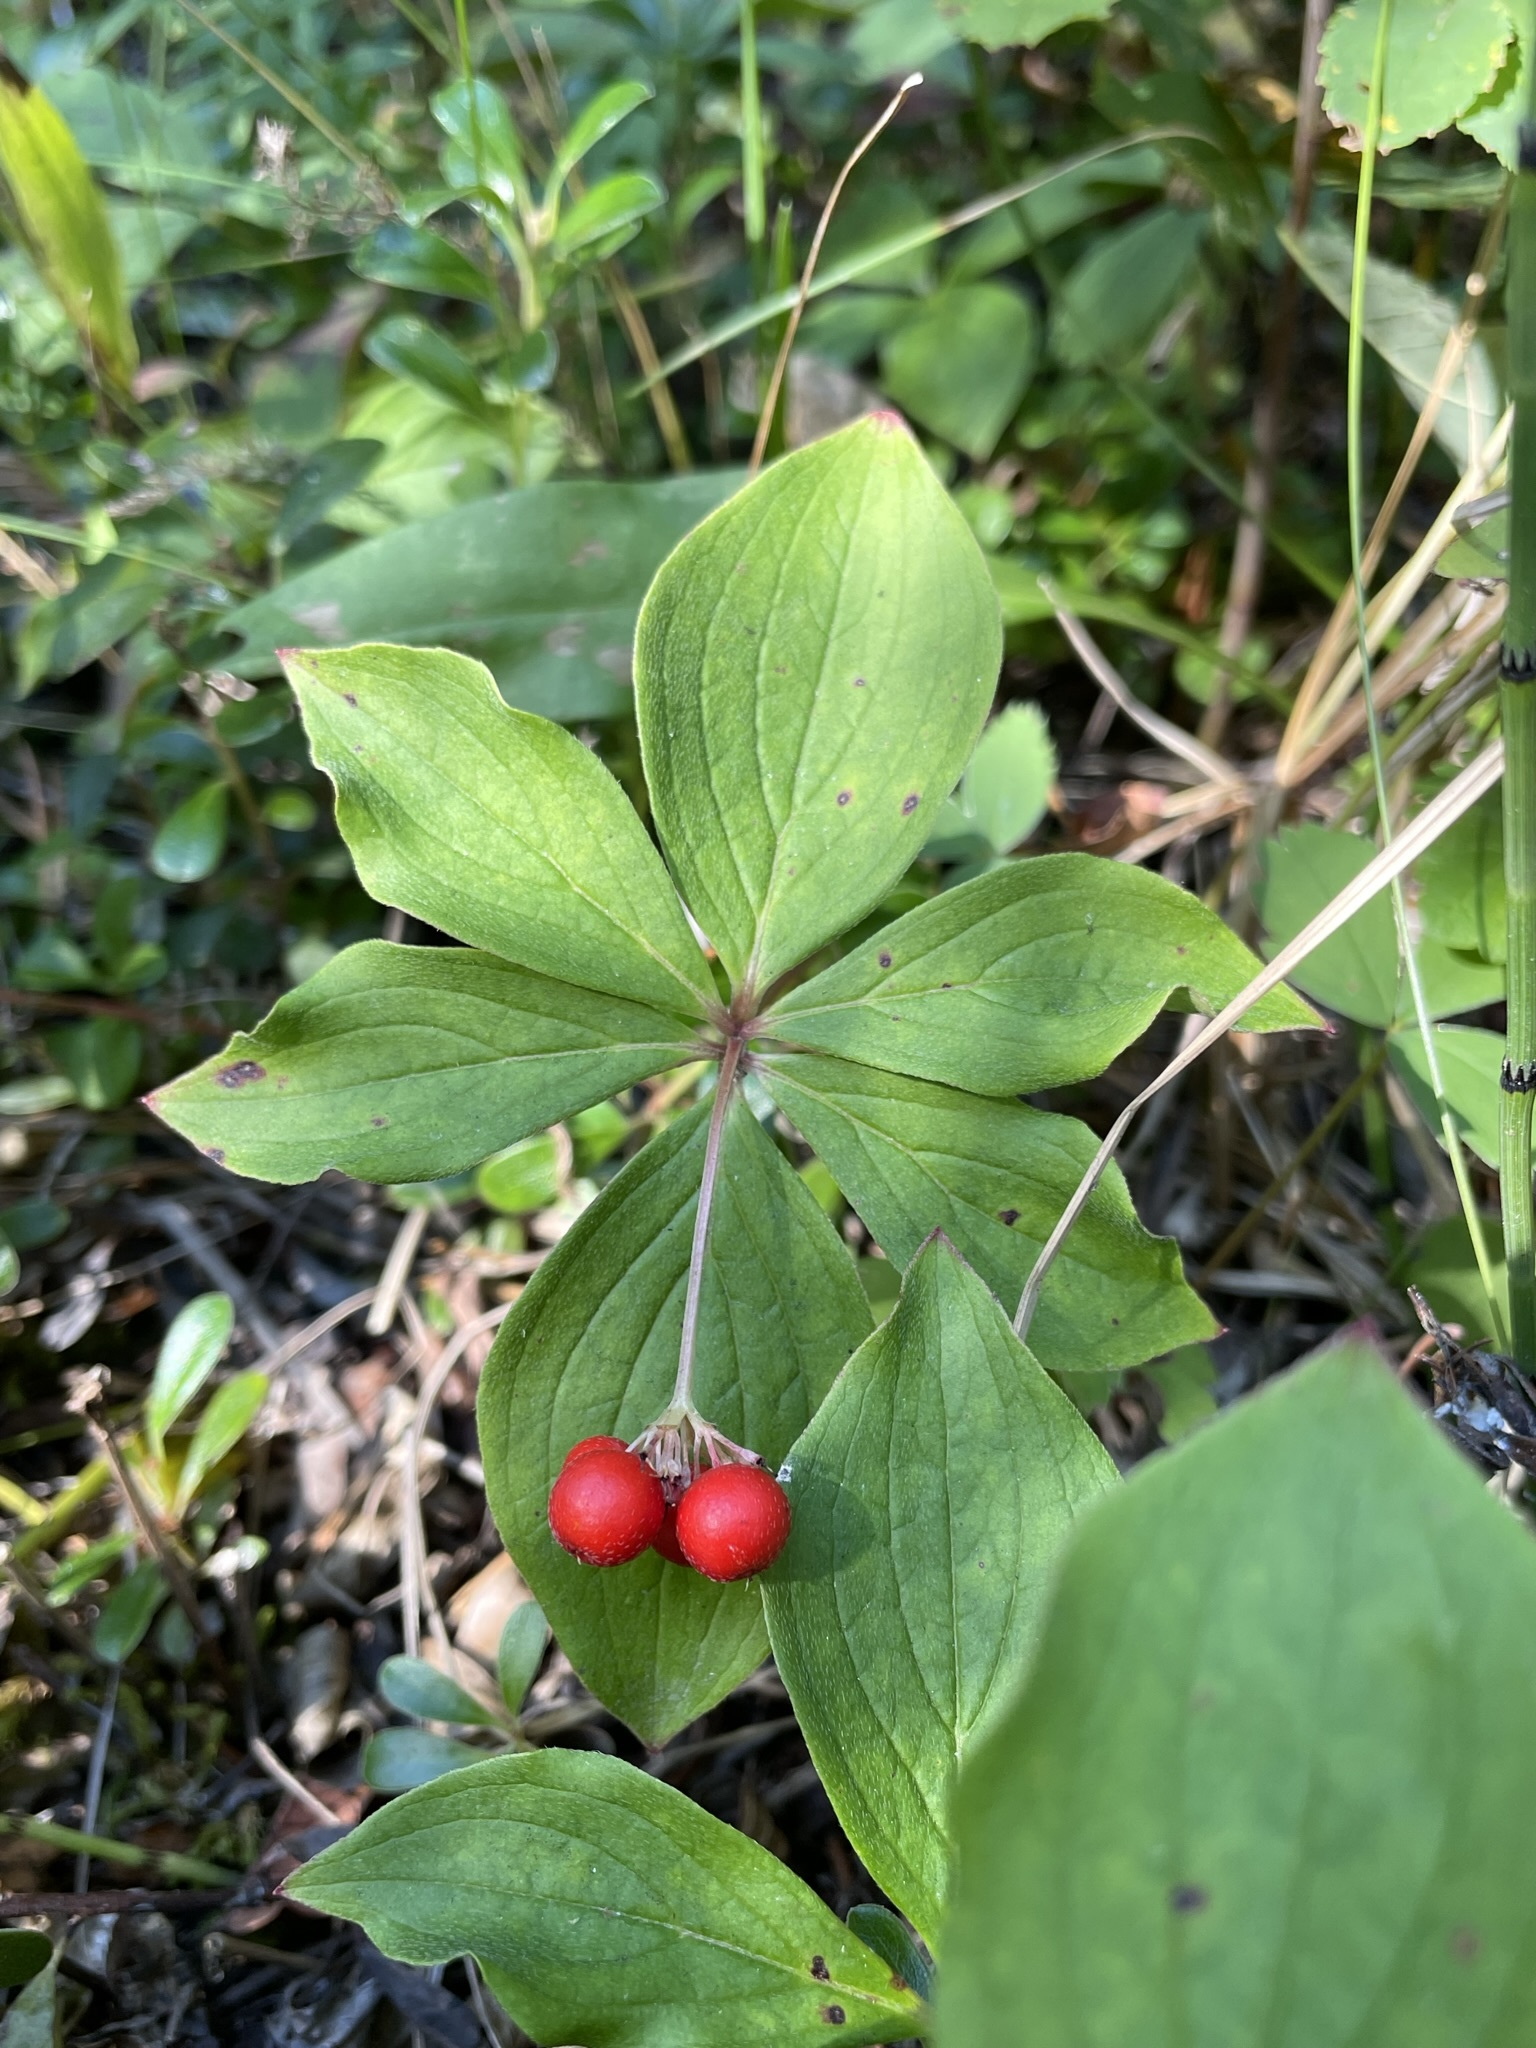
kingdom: Plantae
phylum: Tracheophyta
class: Magnoliopsida
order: Cornales
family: Cornaceae
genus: Cornus
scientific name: Cornus canadensis
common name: Creeping dogwood
